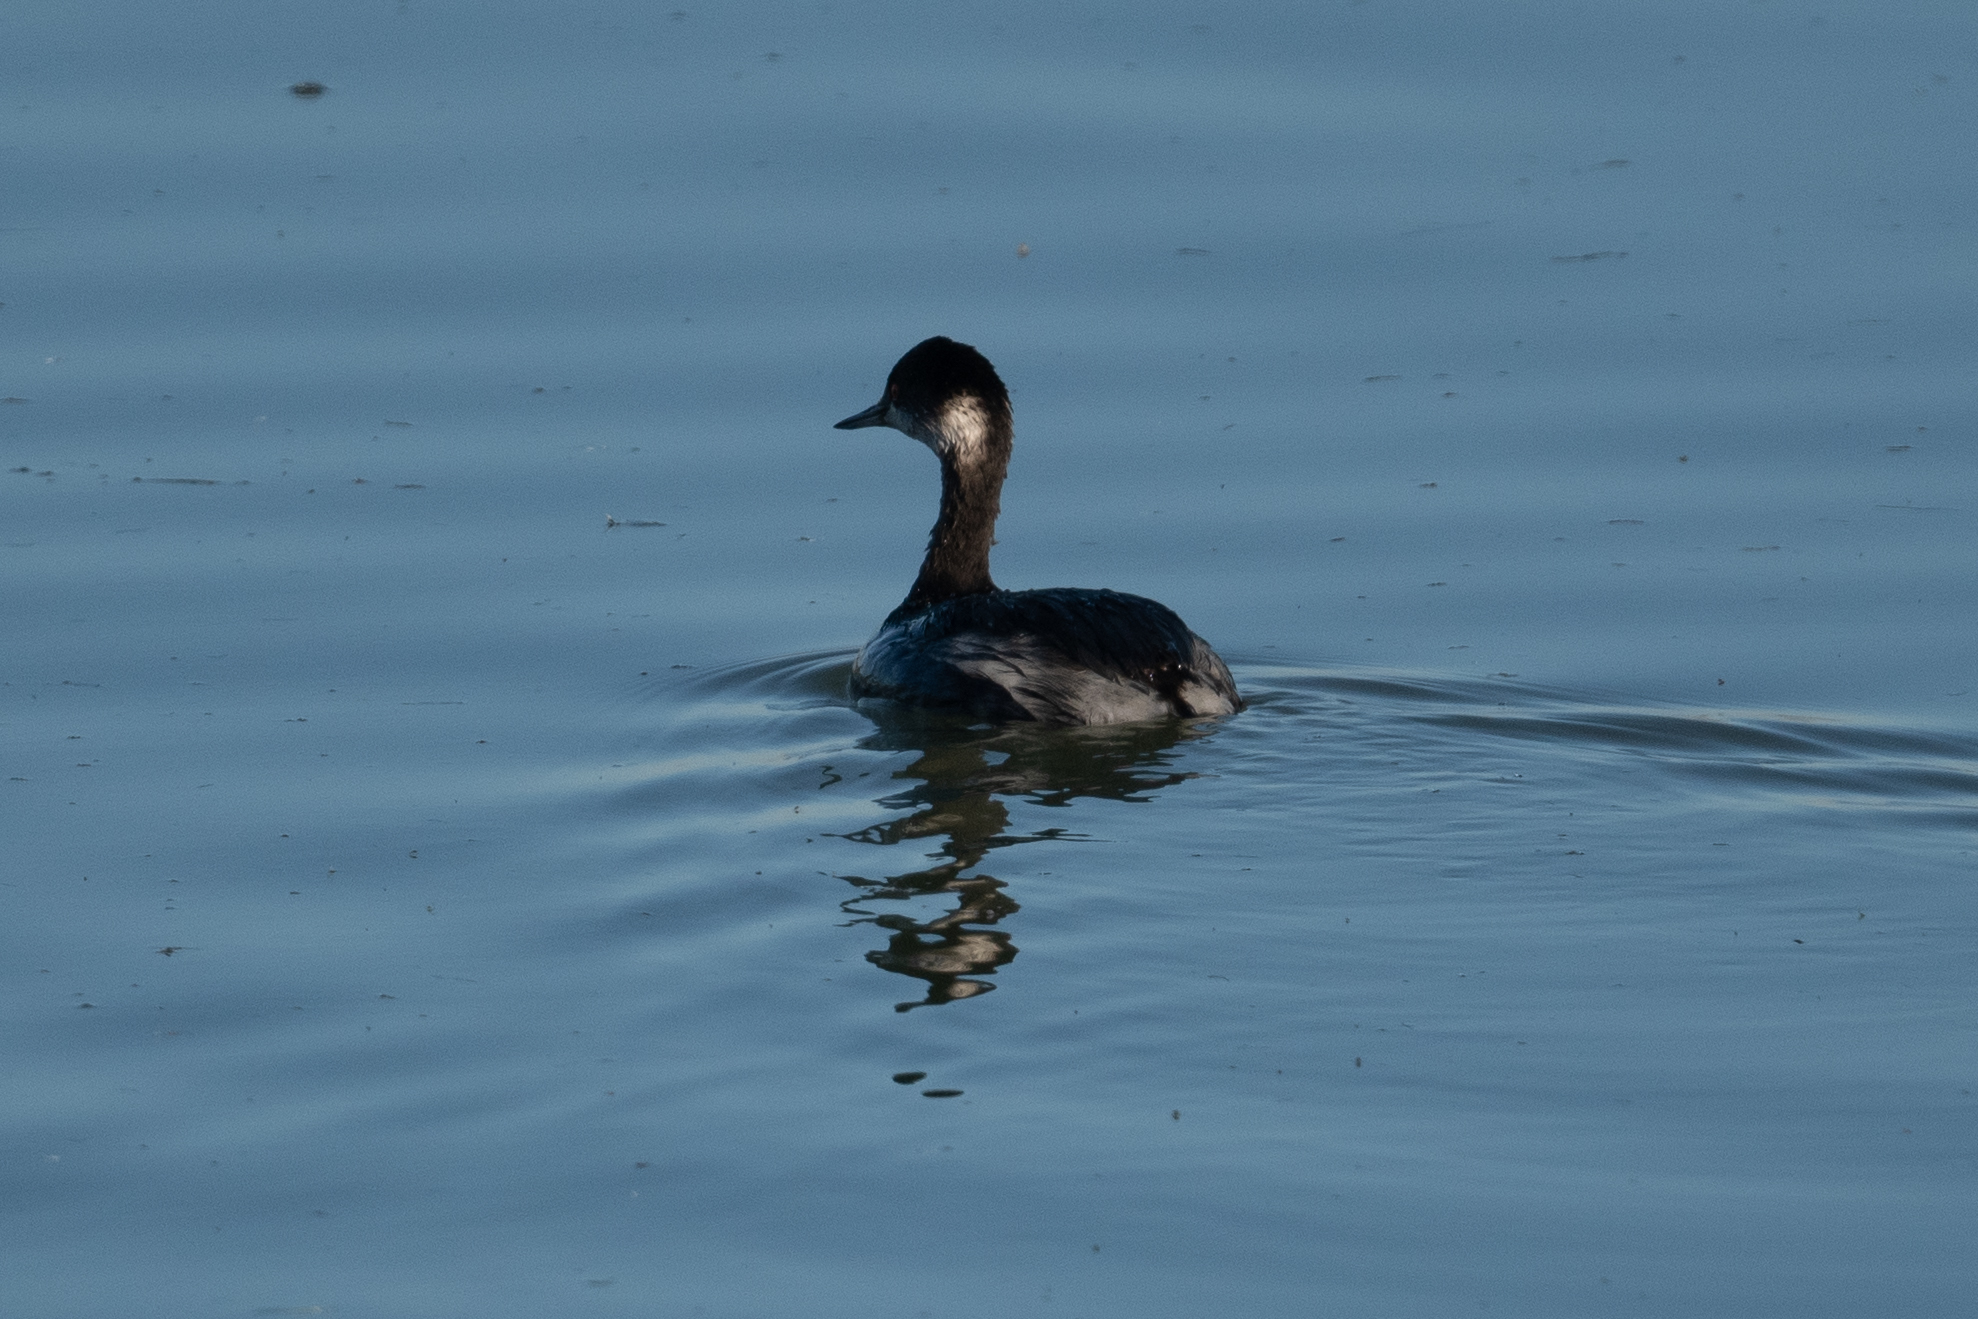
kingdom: Animalia
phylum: Chordata
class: Aves
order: Podicipediformes
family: Podicipedidae
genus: Podiceps
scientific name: Podiceps nigricollis
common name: Black-necked grebe
